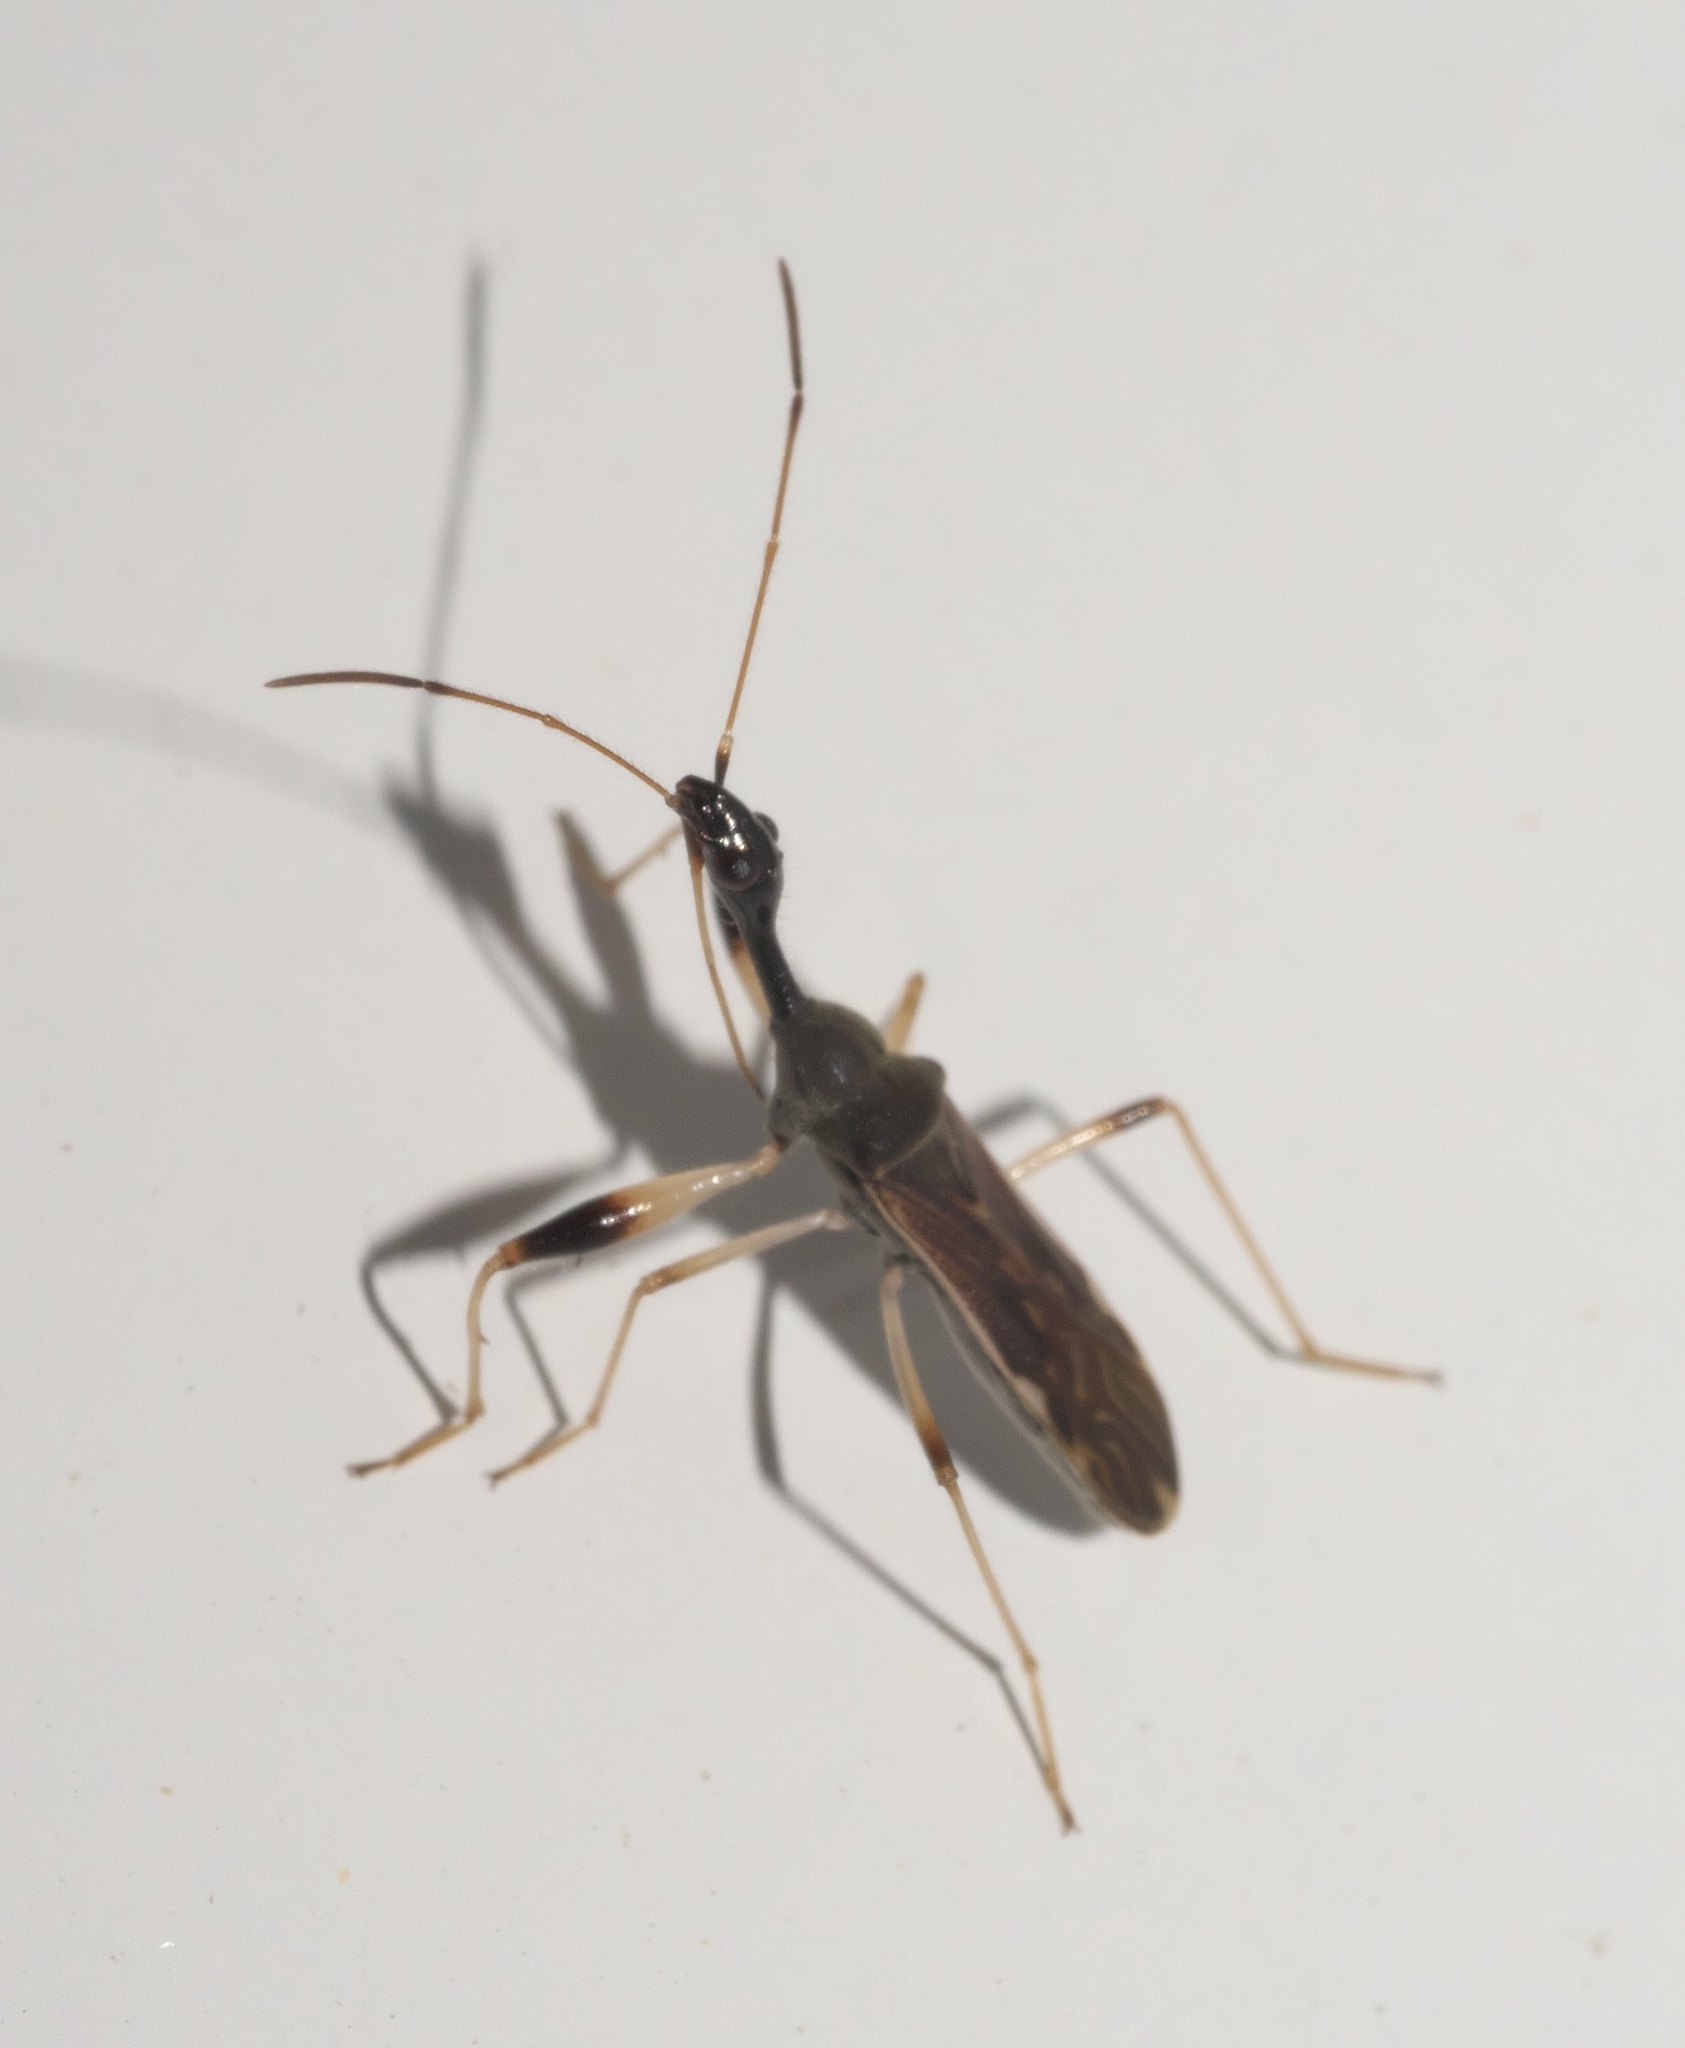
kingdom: Animalia
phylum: Arthropoda
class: Insecta
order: Hemiptera
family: Rhyparochromidae
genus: Myodocha
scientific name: Myodocha serripes
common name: Long-necked seed bug
